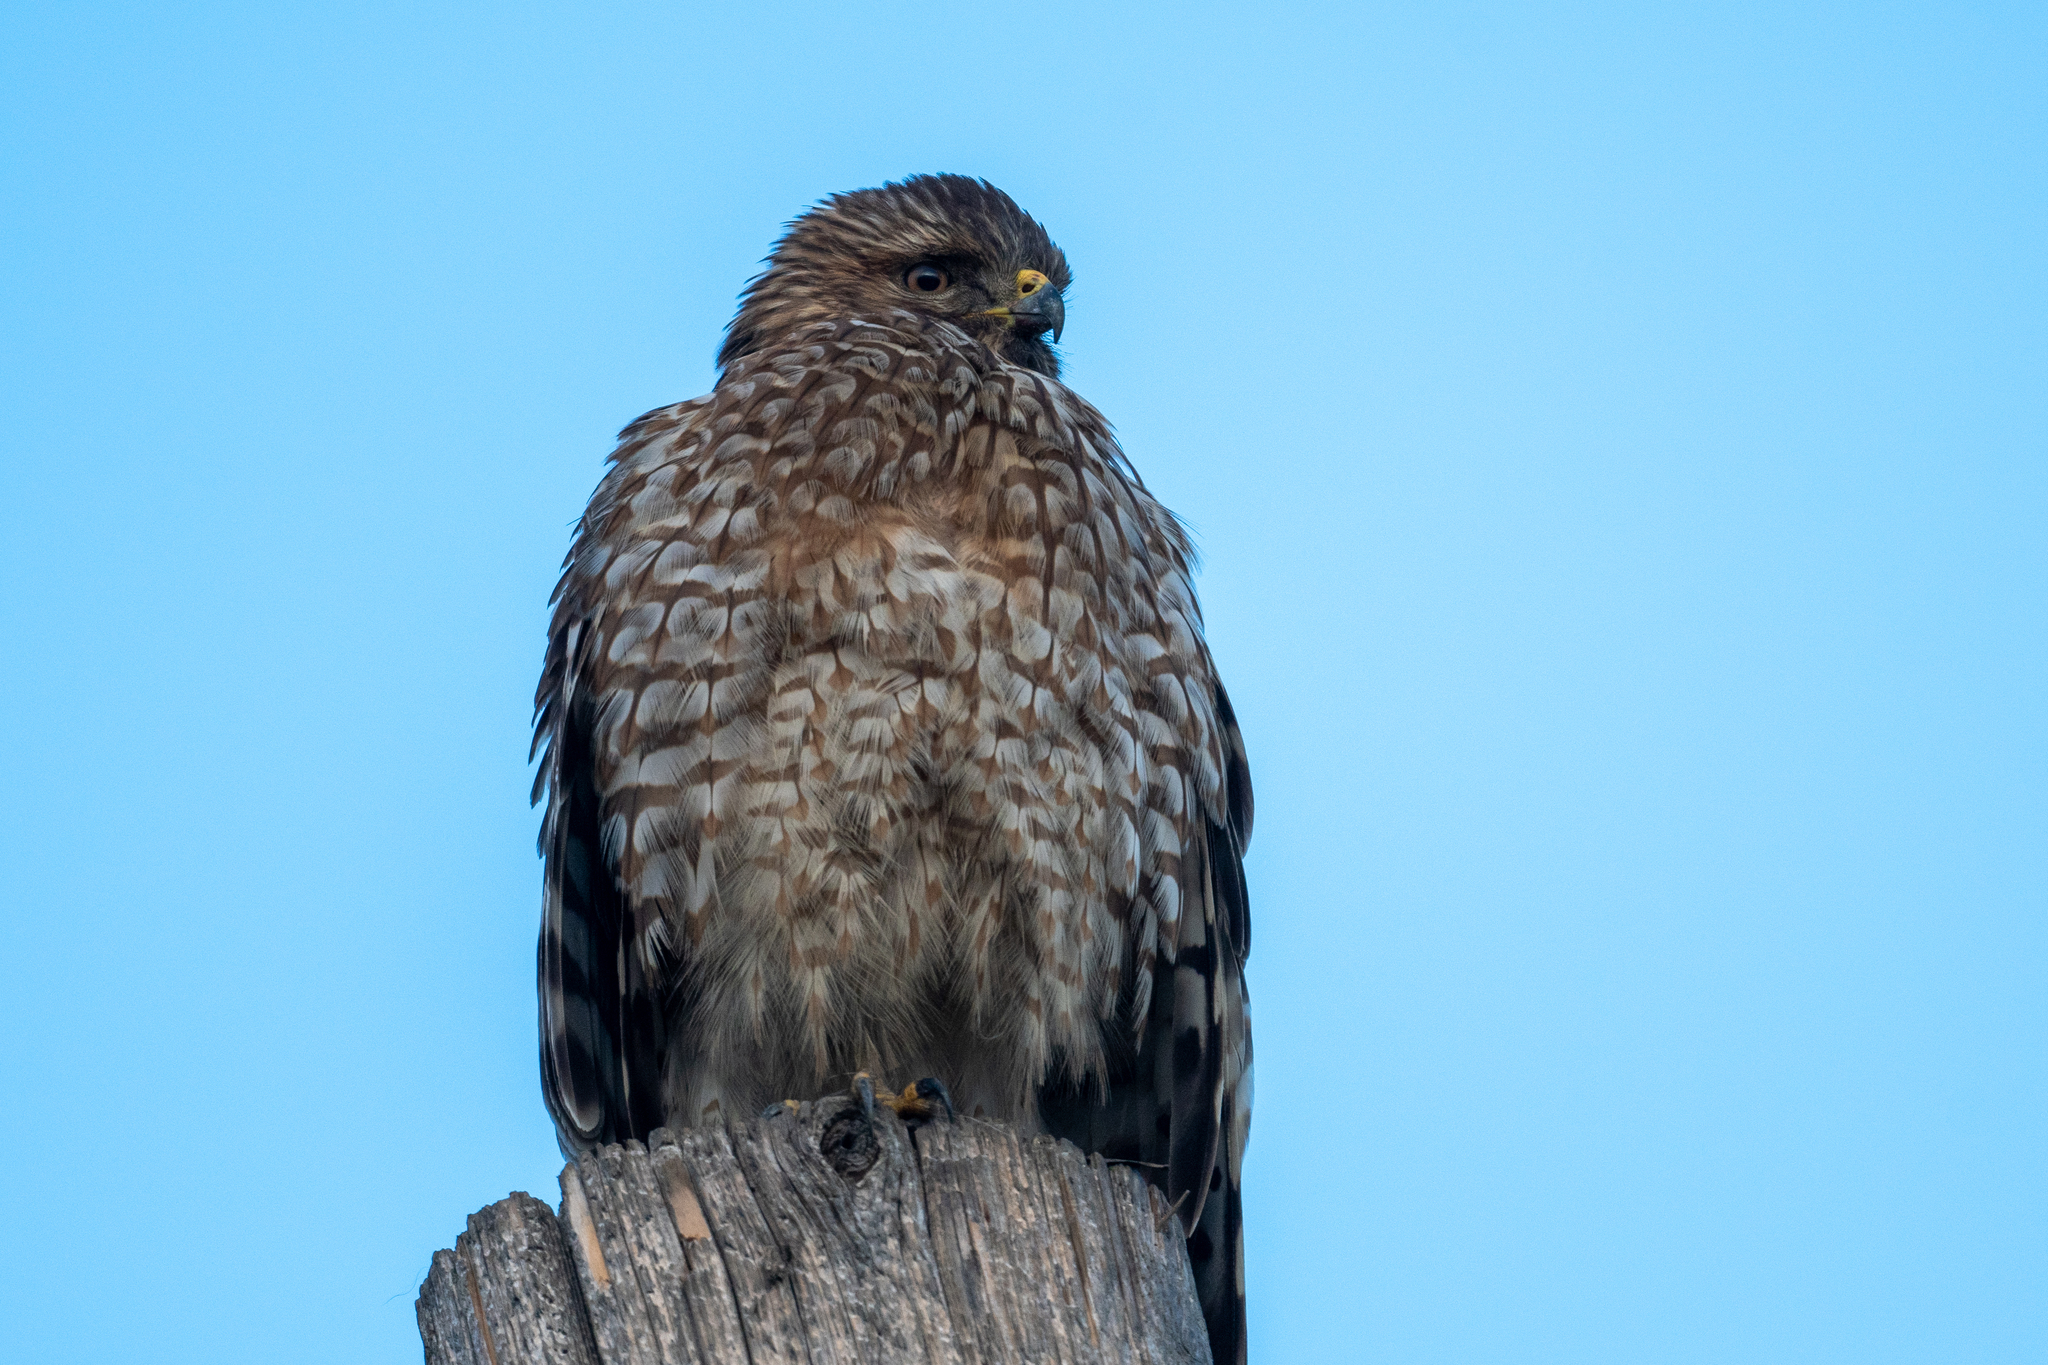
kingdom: Animalia
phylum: Chordata
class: Aves
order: Accipitriformes
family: Accipitridae
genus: Buteo
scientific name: Buteo lineatus
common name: Red-shouldered hawk
